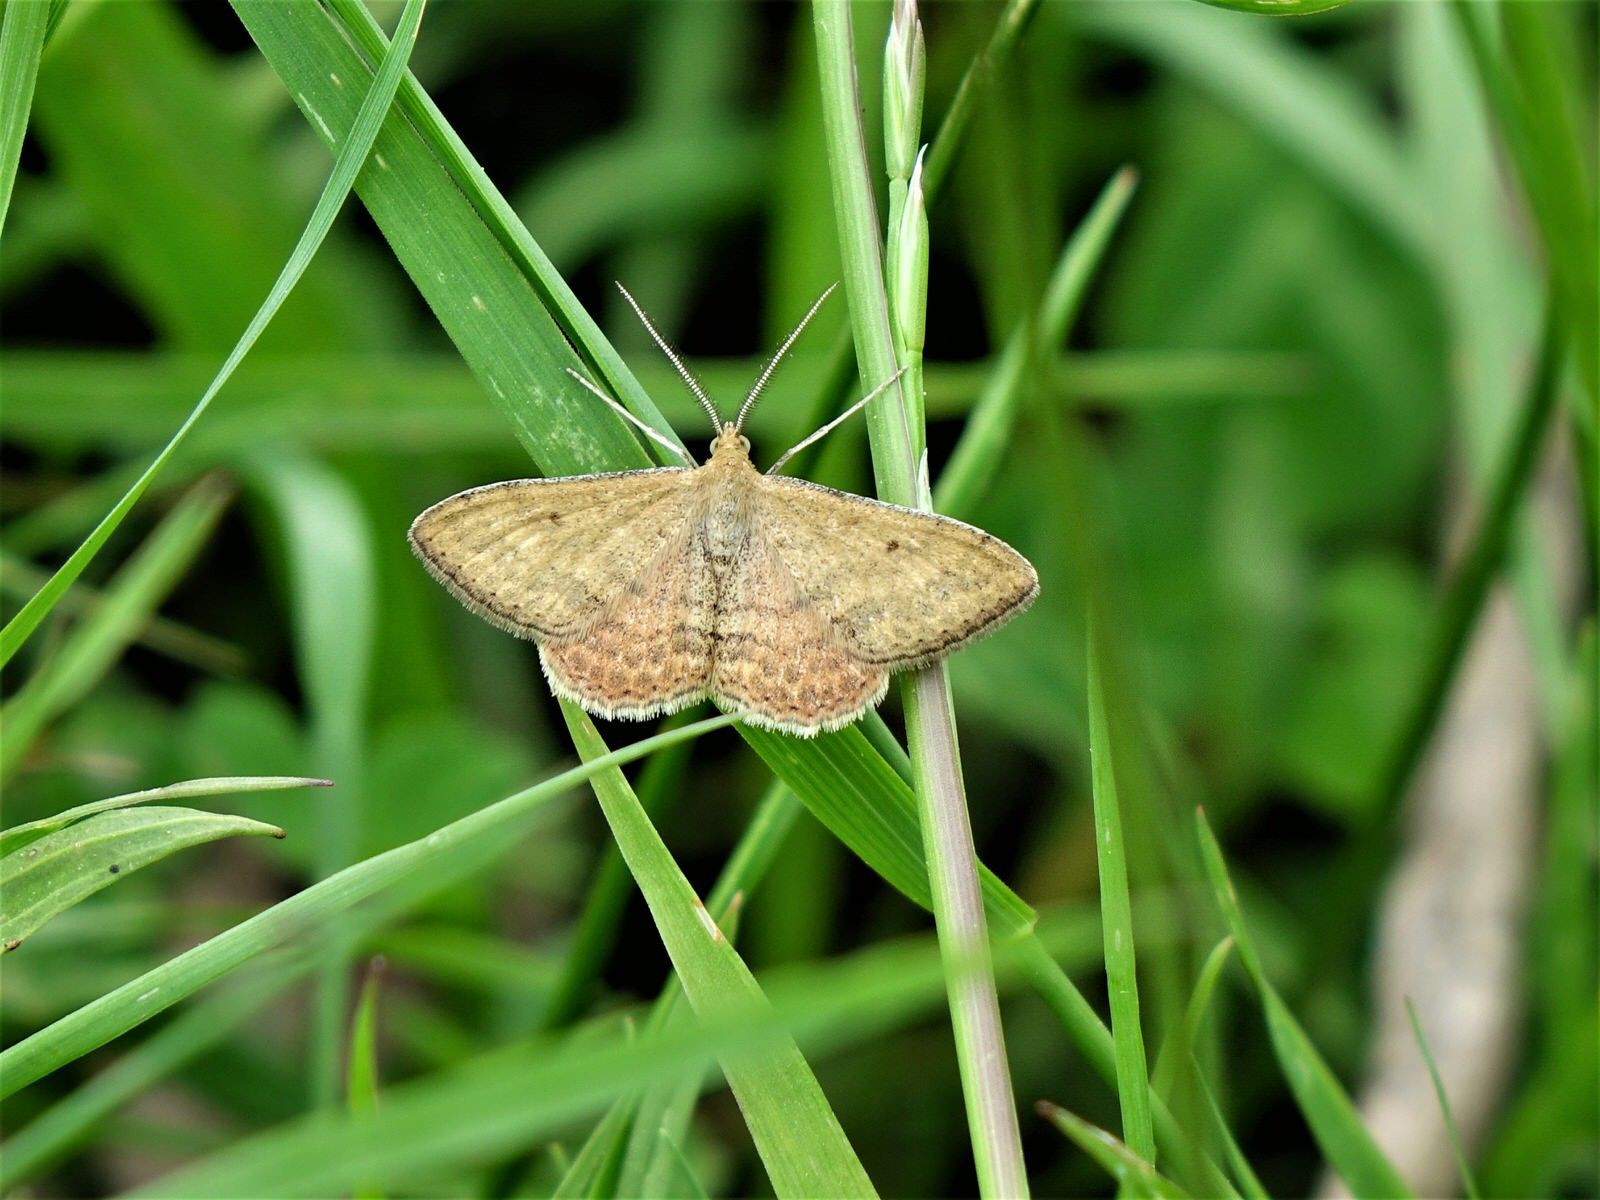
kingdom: Animalia
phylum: Arthropoda
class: Insecta
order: Lepidoptera
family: Geometridae
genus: Scopula
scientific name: Scopula rubraria
